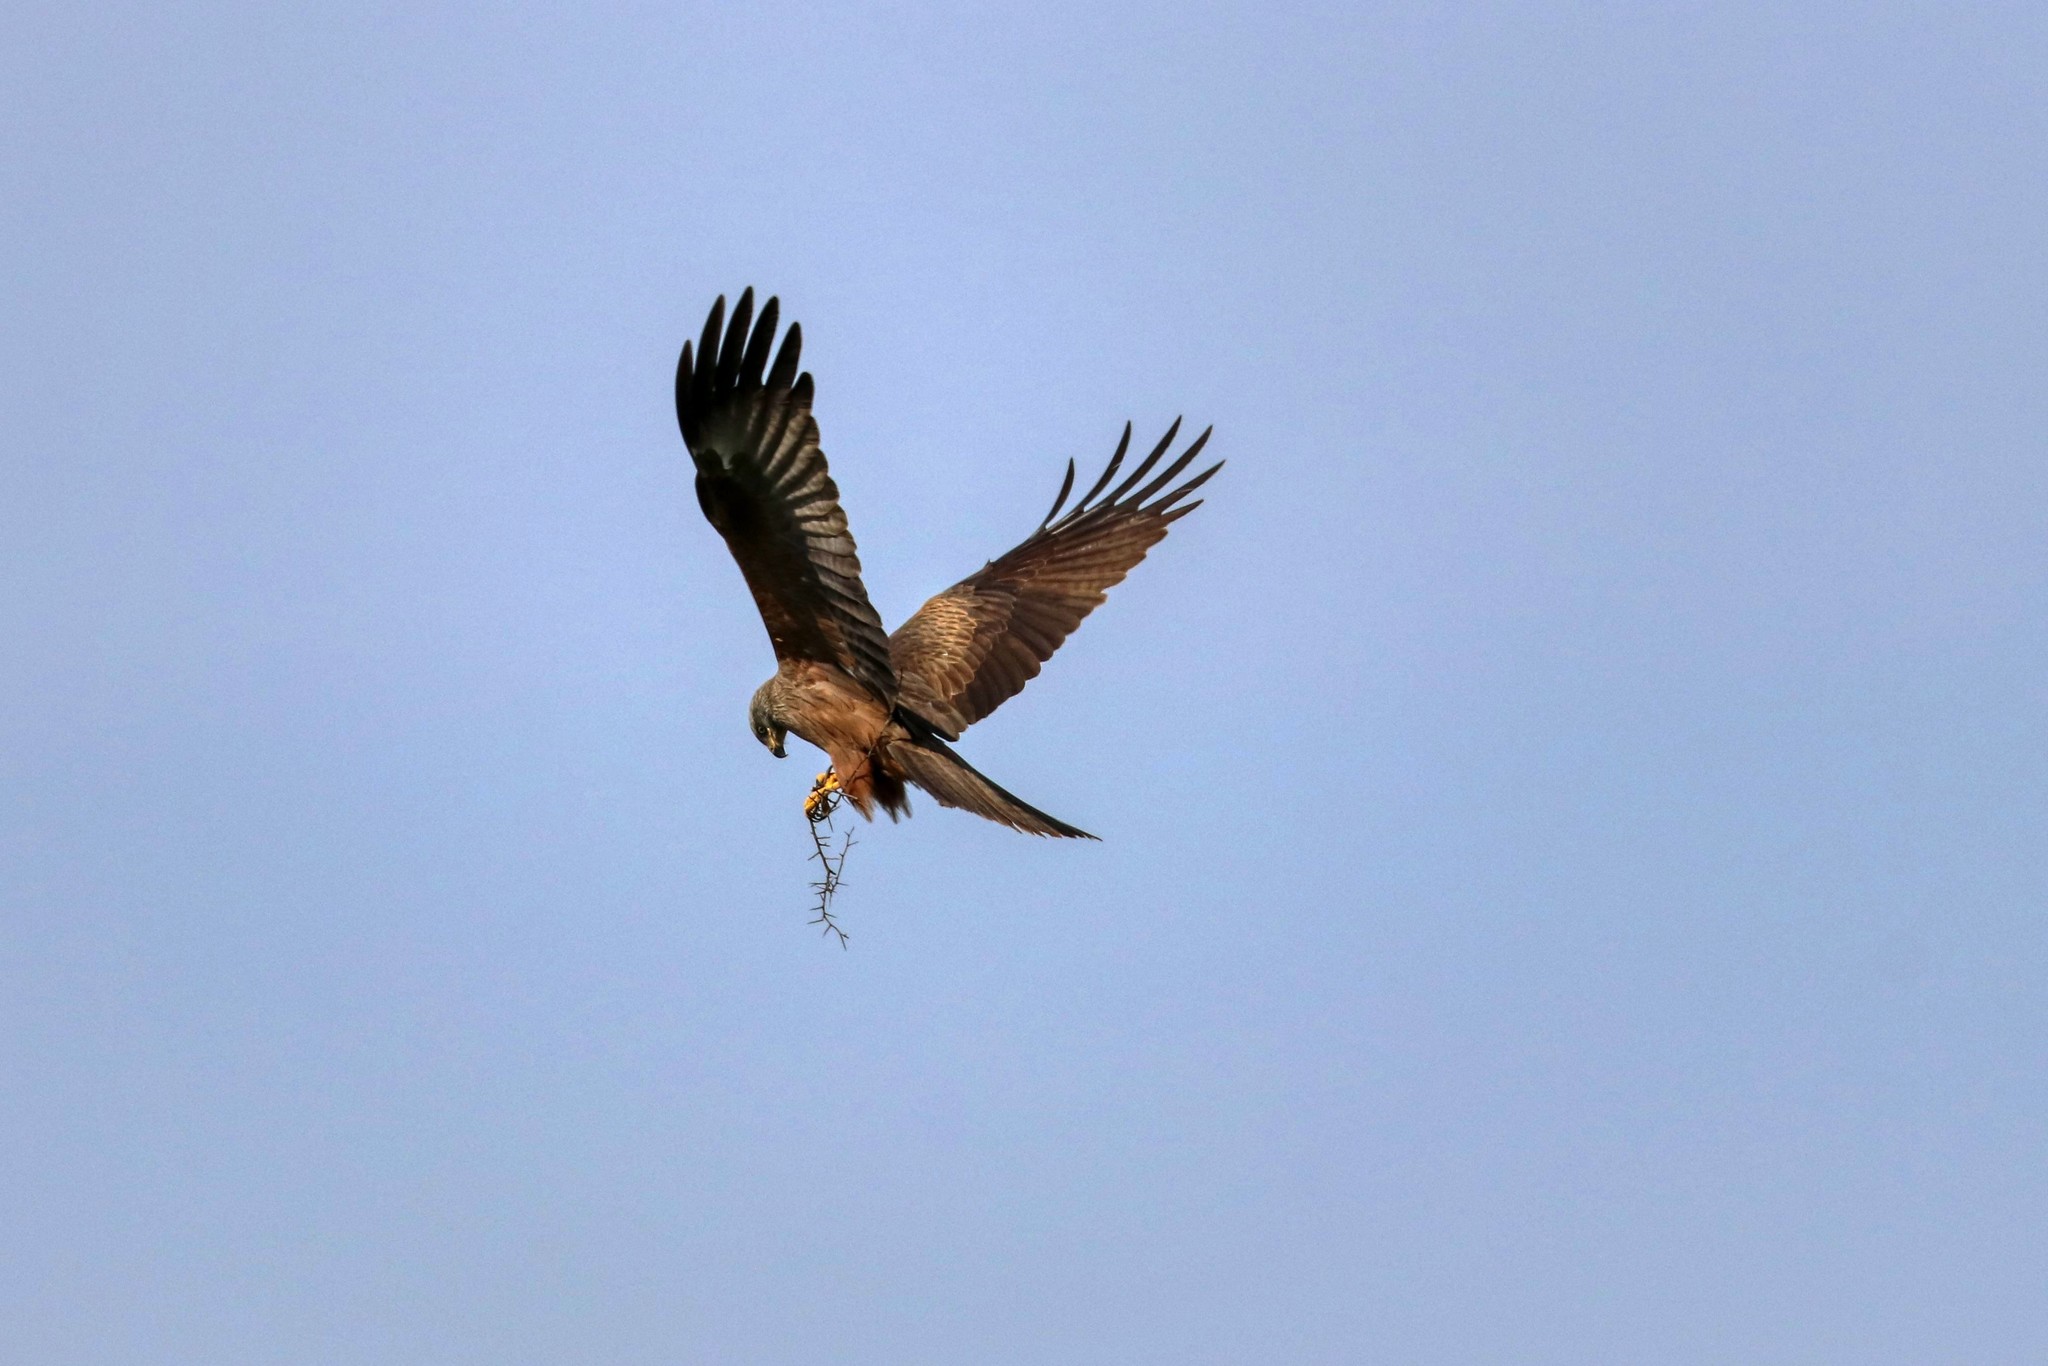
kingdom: Animalia
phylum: Chordata
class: Aves
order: Accipitriformes
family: Accipitridae
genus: Milvus
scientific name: Milvus migrans
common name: Black kite
